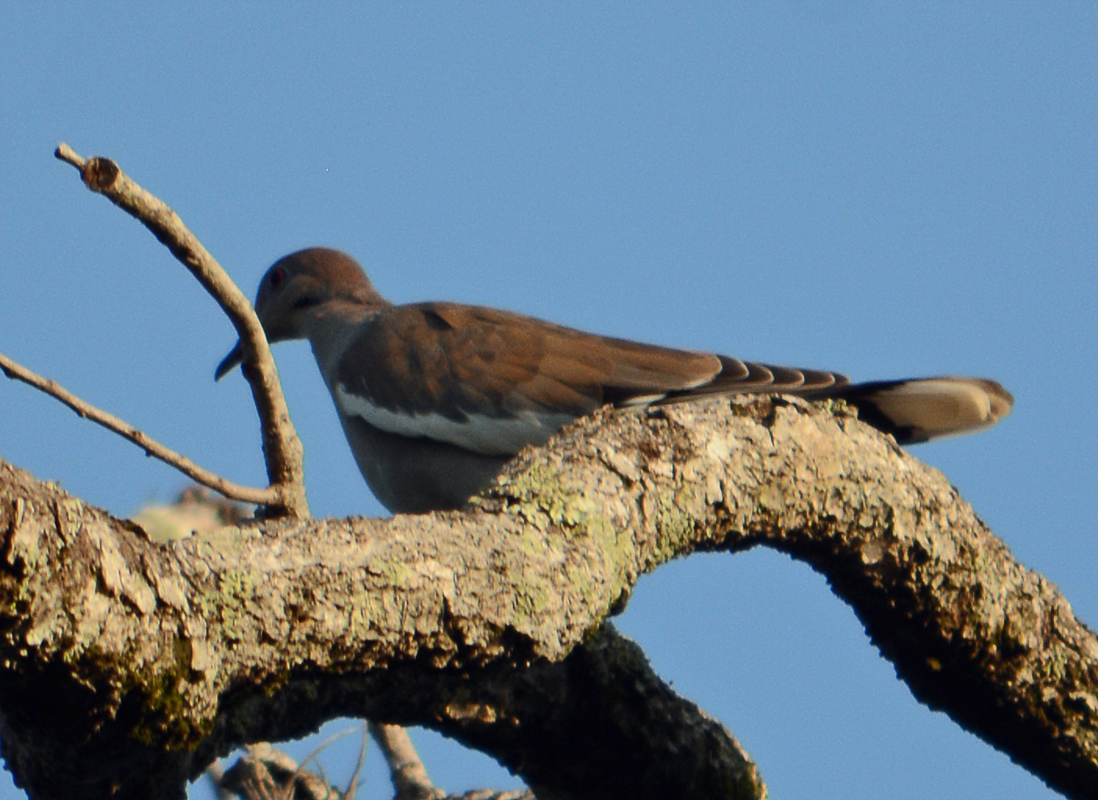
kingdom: Animalia
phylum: Chordata
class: Aves
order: Columbiformes
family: Columbidae
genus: Zenaida
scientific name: Zenaida asiatica
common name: White-winged dove
